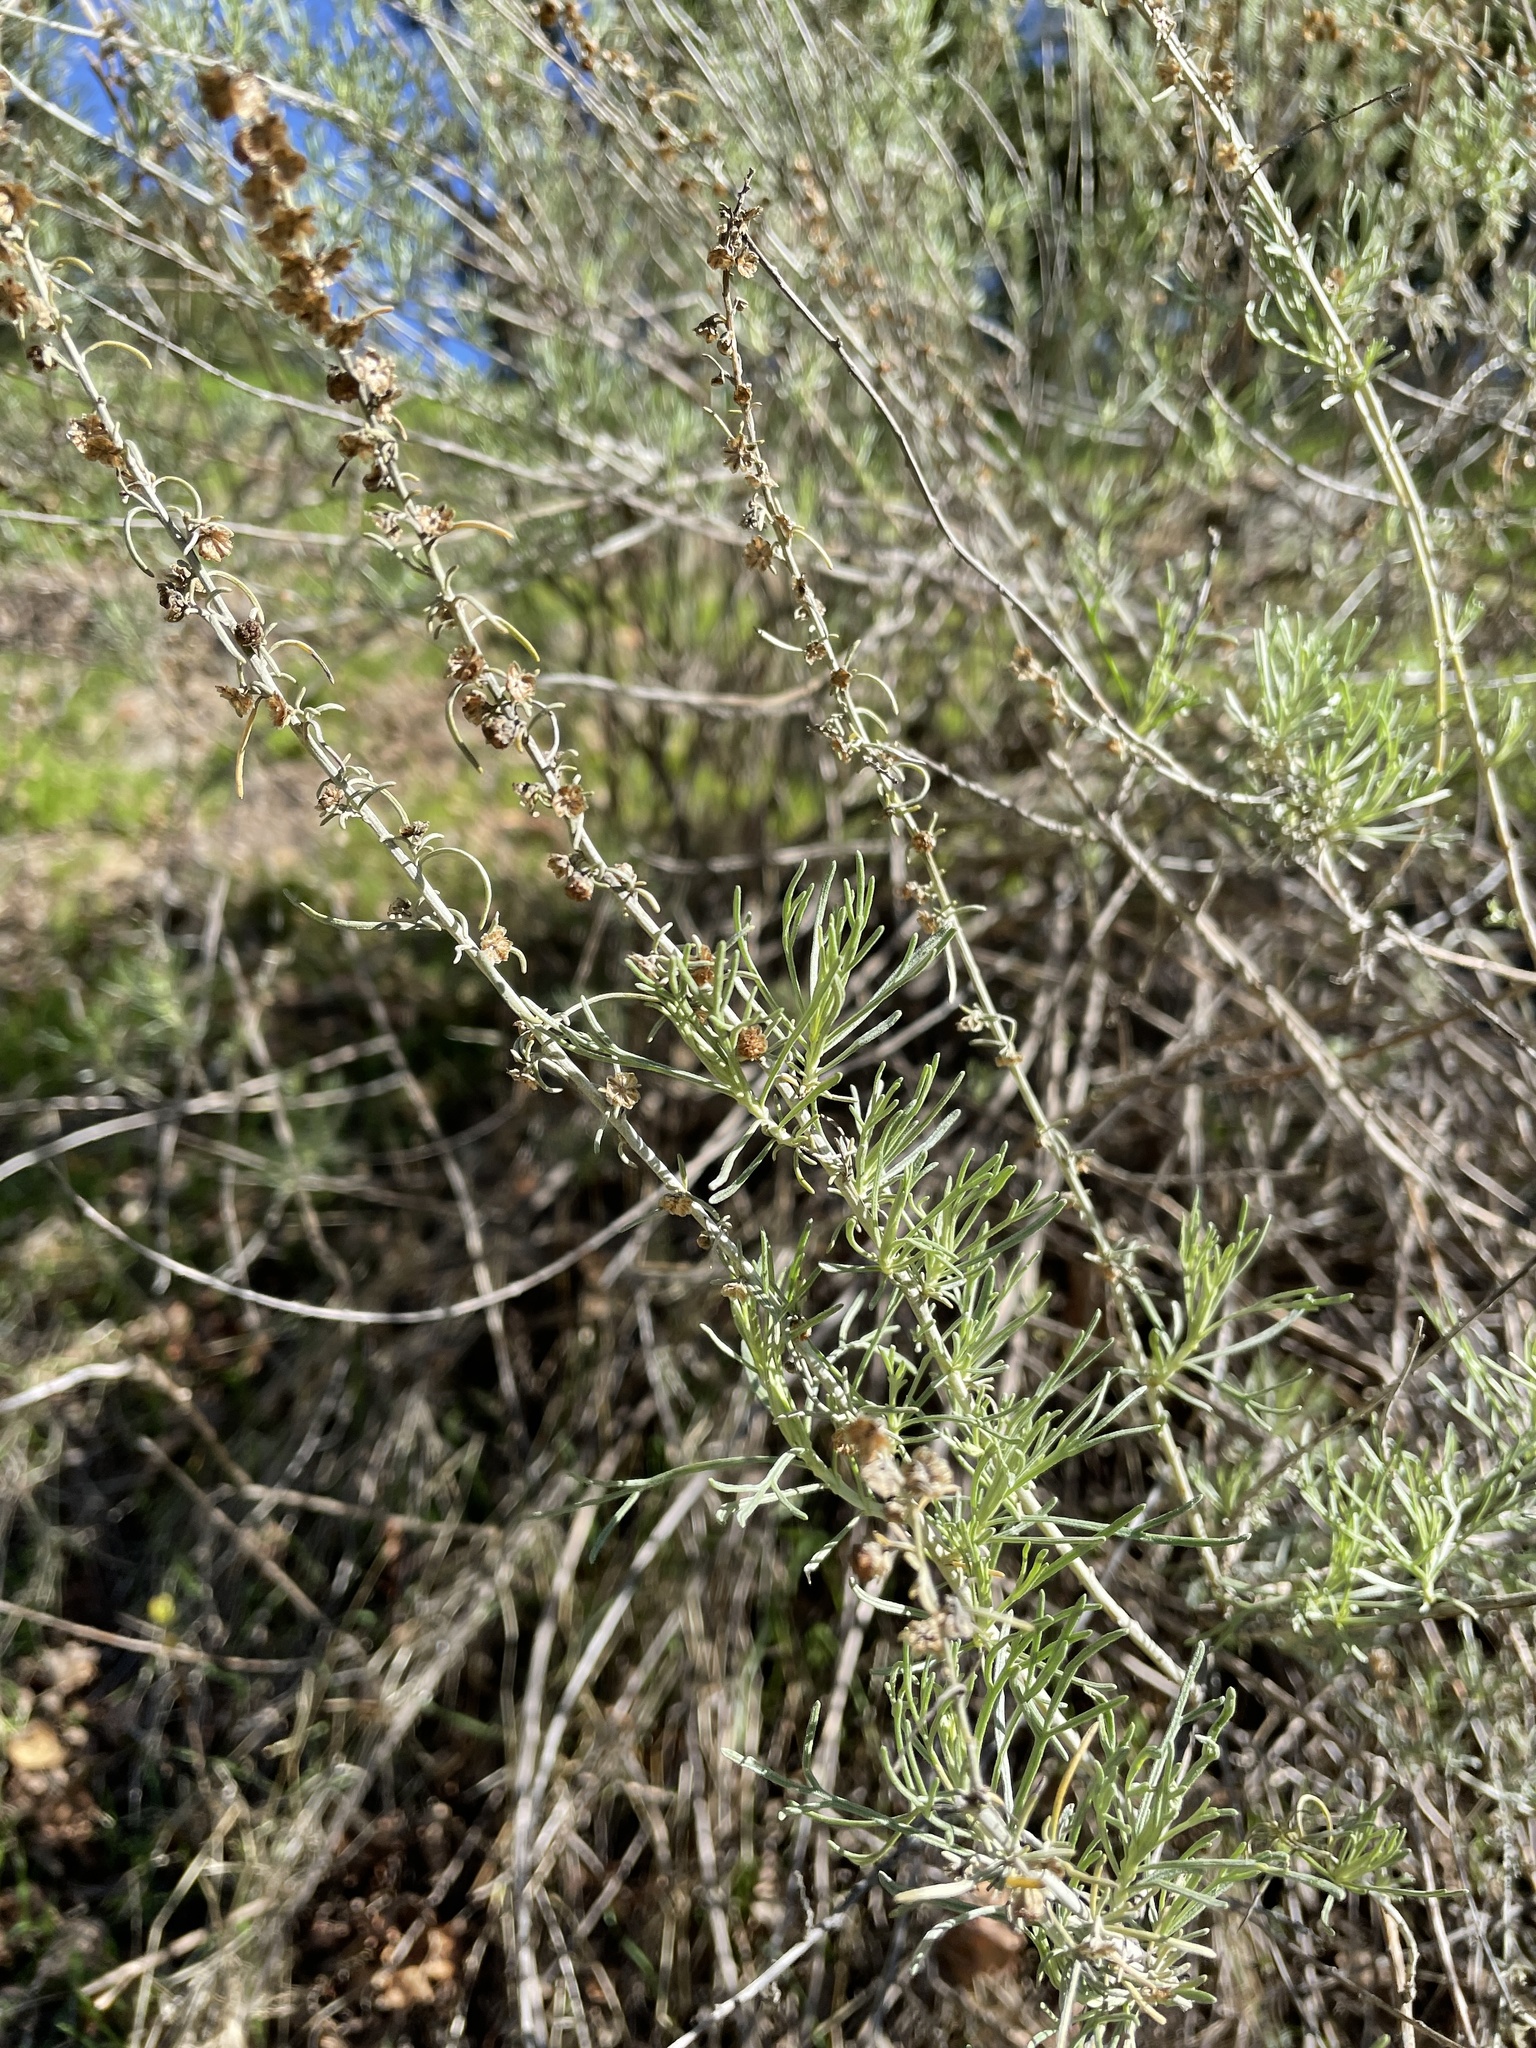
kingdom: Plantae
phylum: Tracheophyta
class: Magnoliopsida
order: Asterales
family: Asteraceae
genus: Artemisia
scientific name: Artemisia californica
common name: California sagebrush
